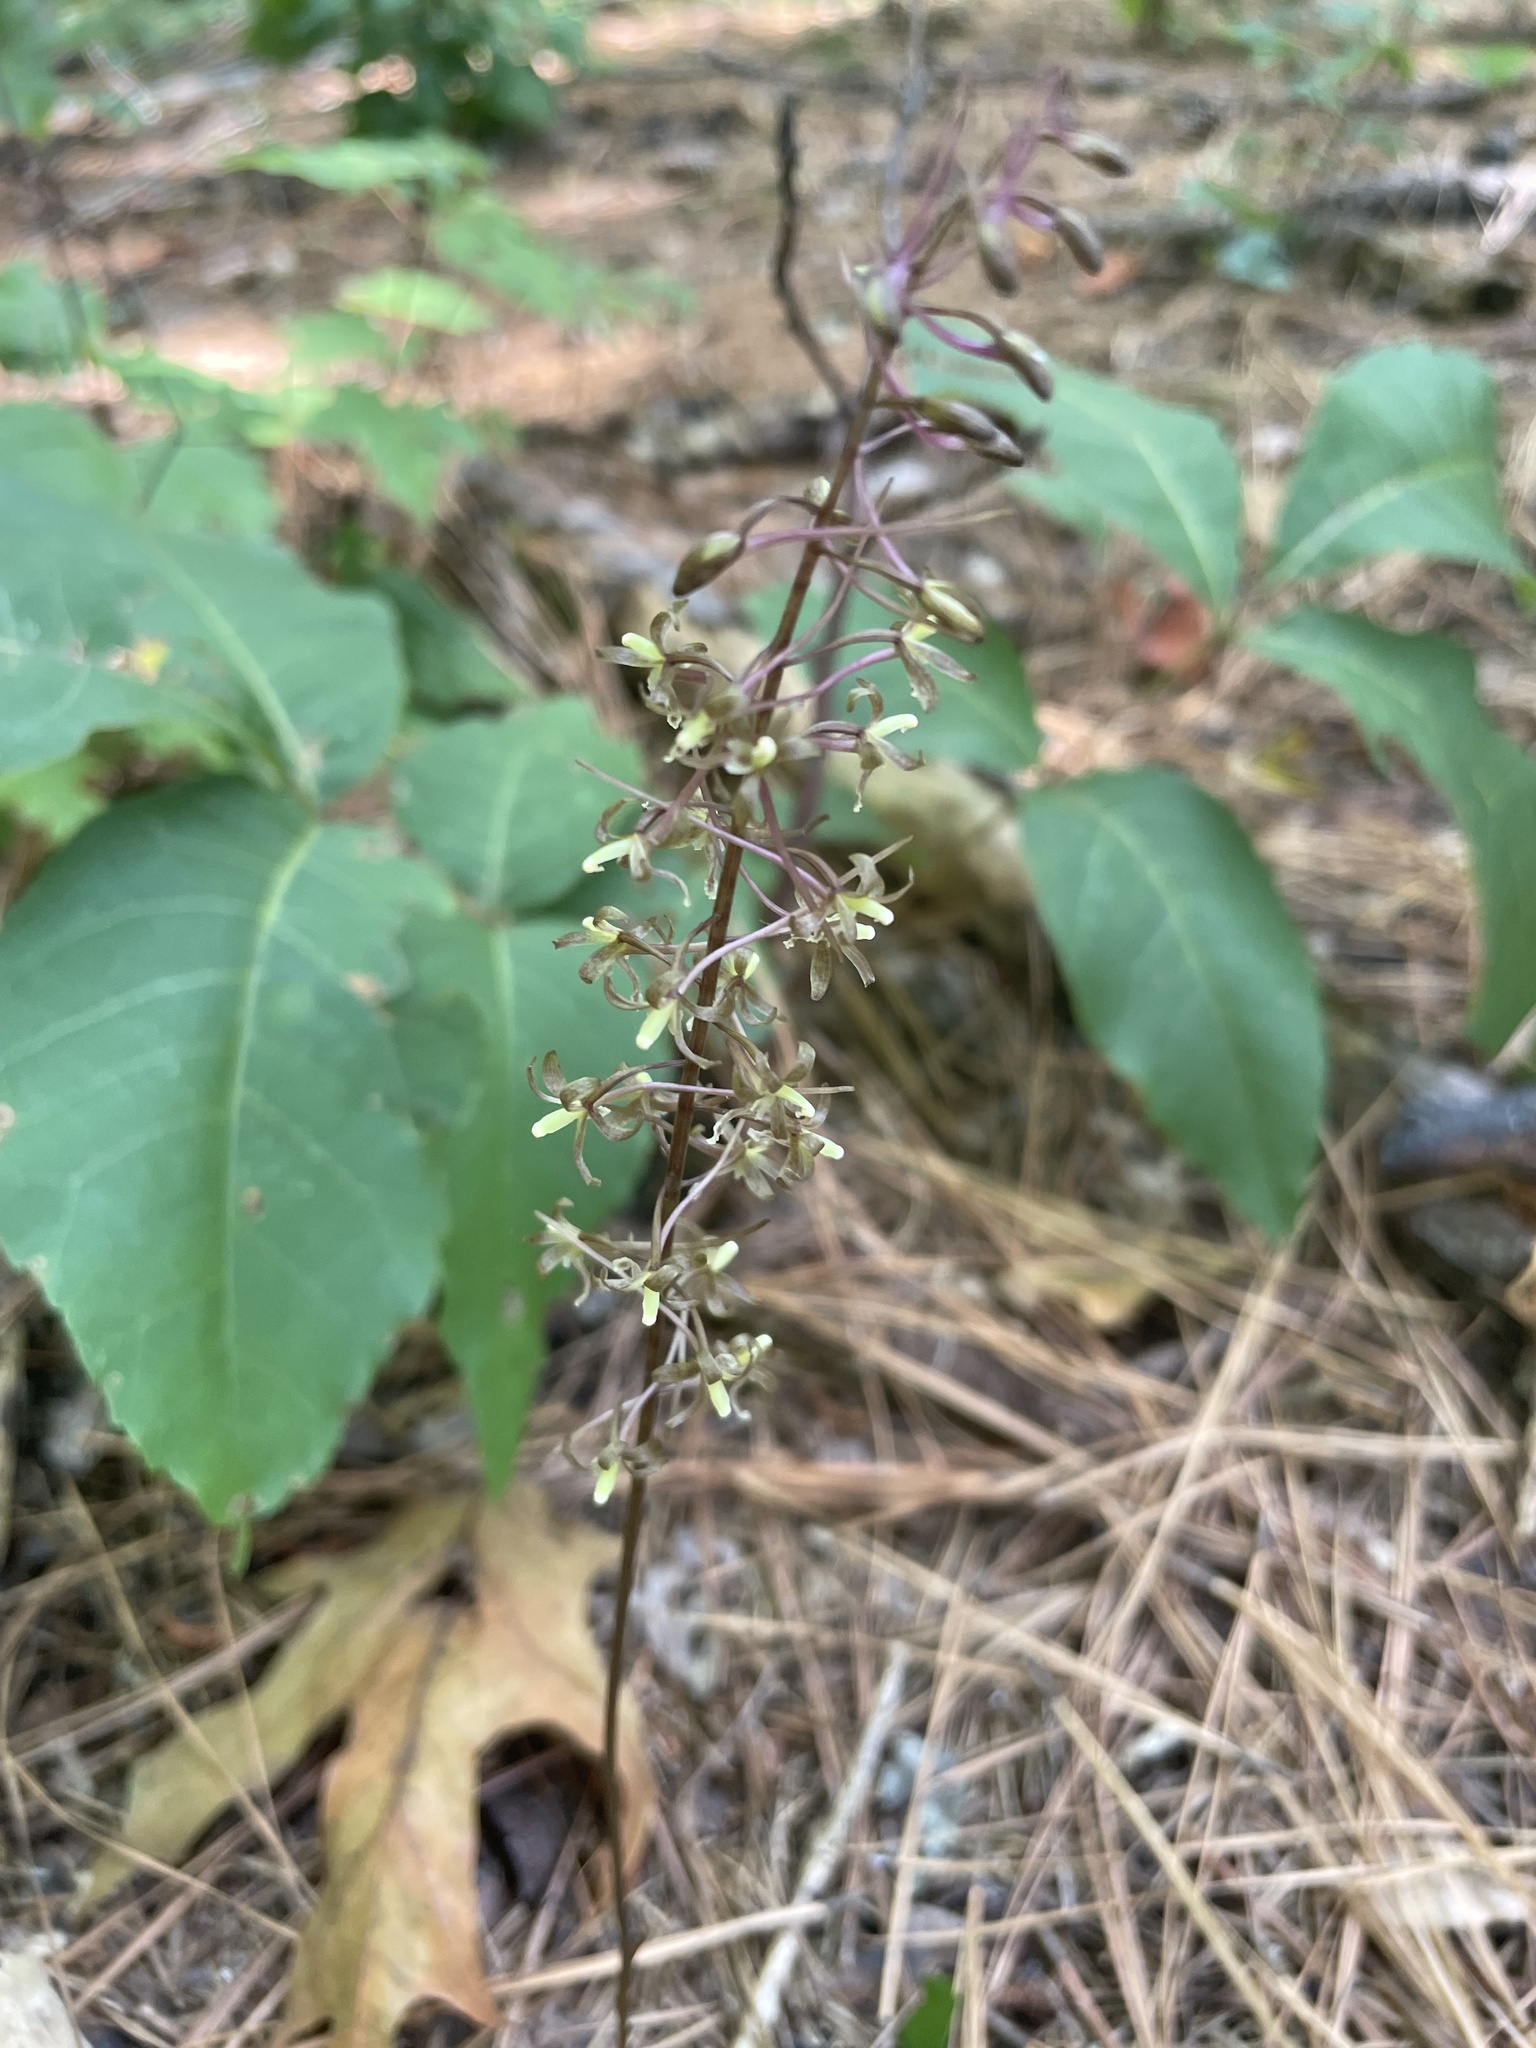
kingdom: Plantae
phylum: Tracheophyta
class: Liliopsida
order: Asparagales
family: Orchidaceae
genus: Tipularia
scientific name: Tipularia discolor
